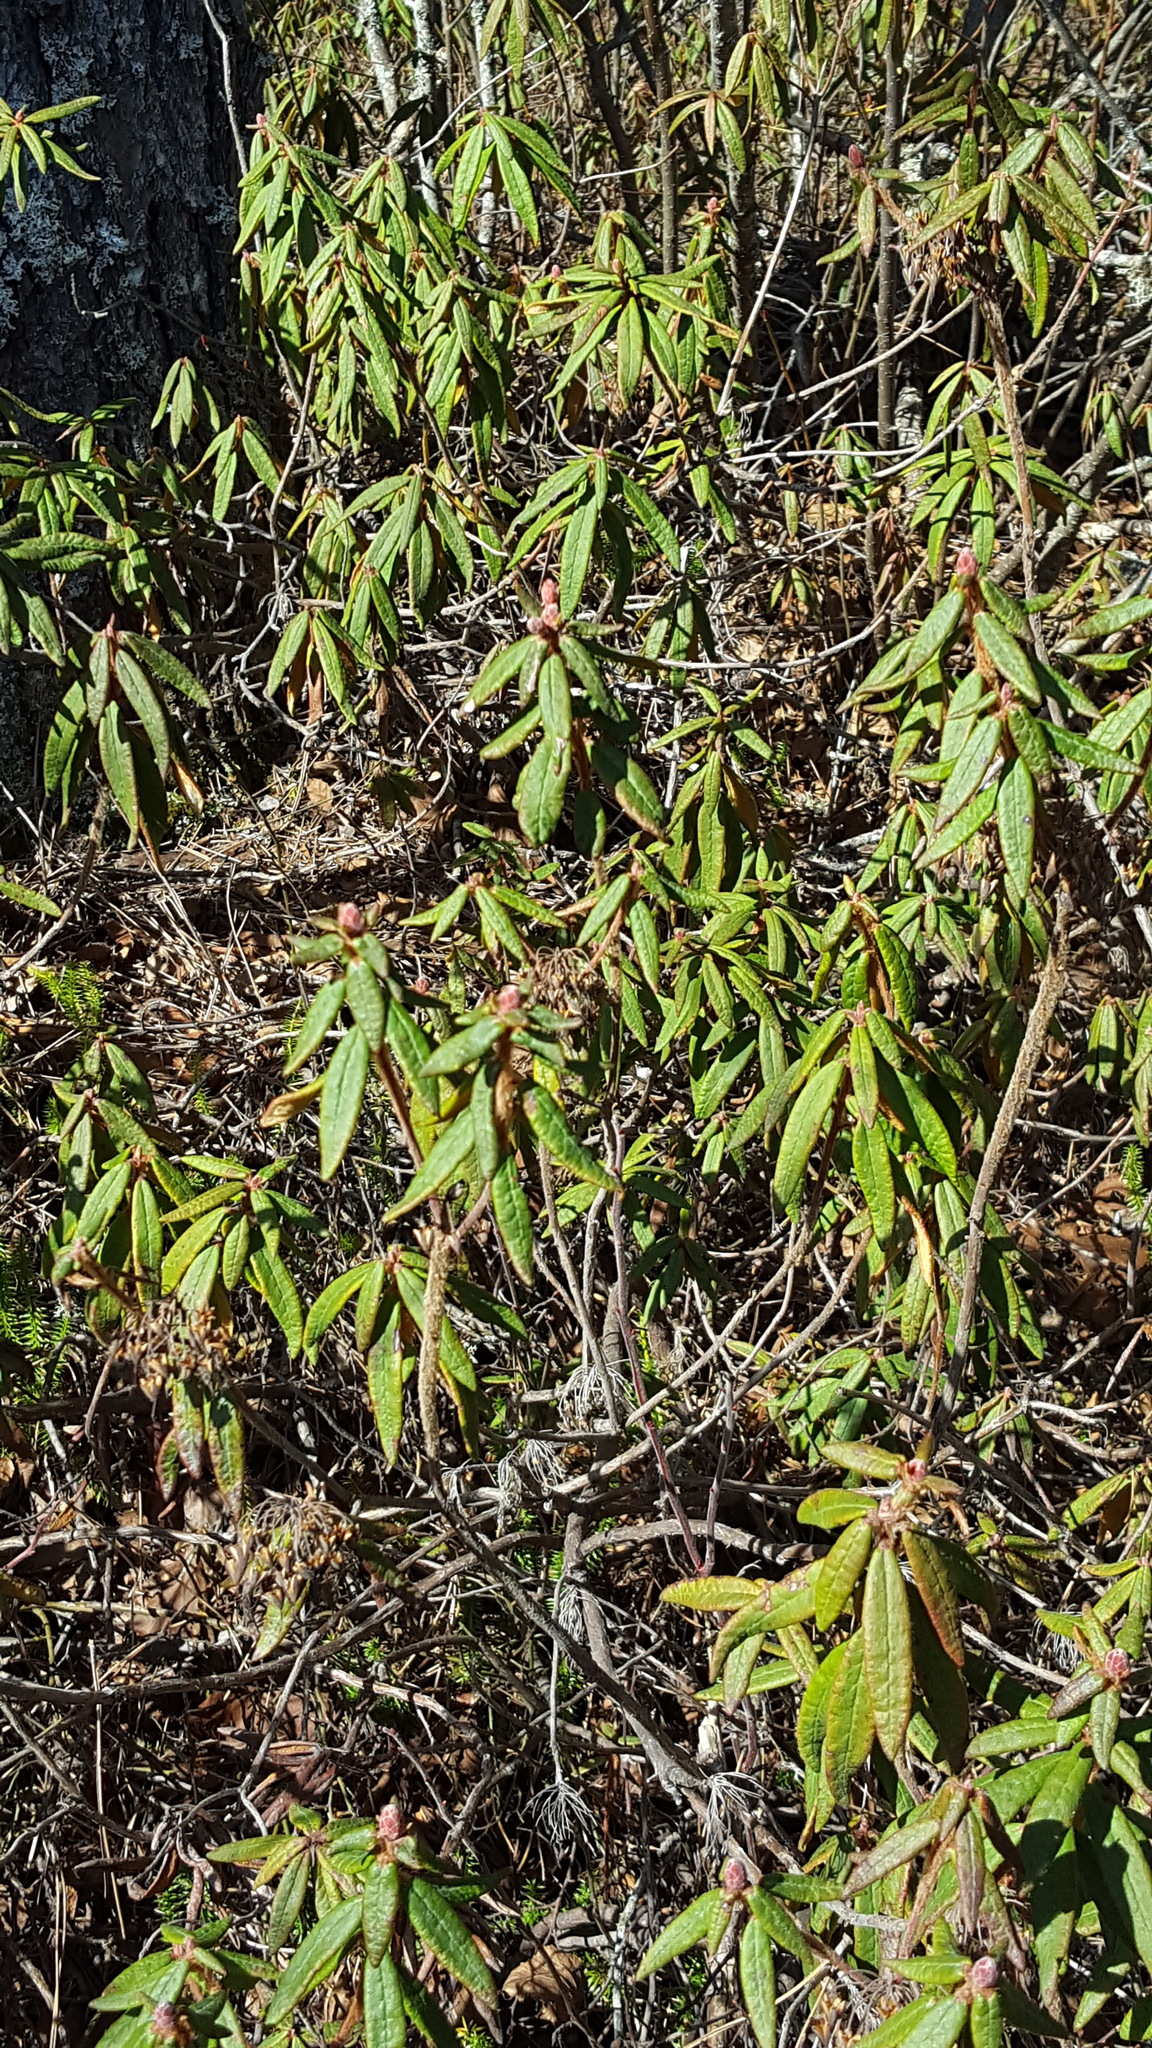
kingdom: Plantae
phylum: Tracheophyta
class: Magnoliopsida
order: Ericales
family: Ericaceae
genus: Rhododendron
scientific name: Rhododendron groenlandicum
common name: Bog labrador tea
